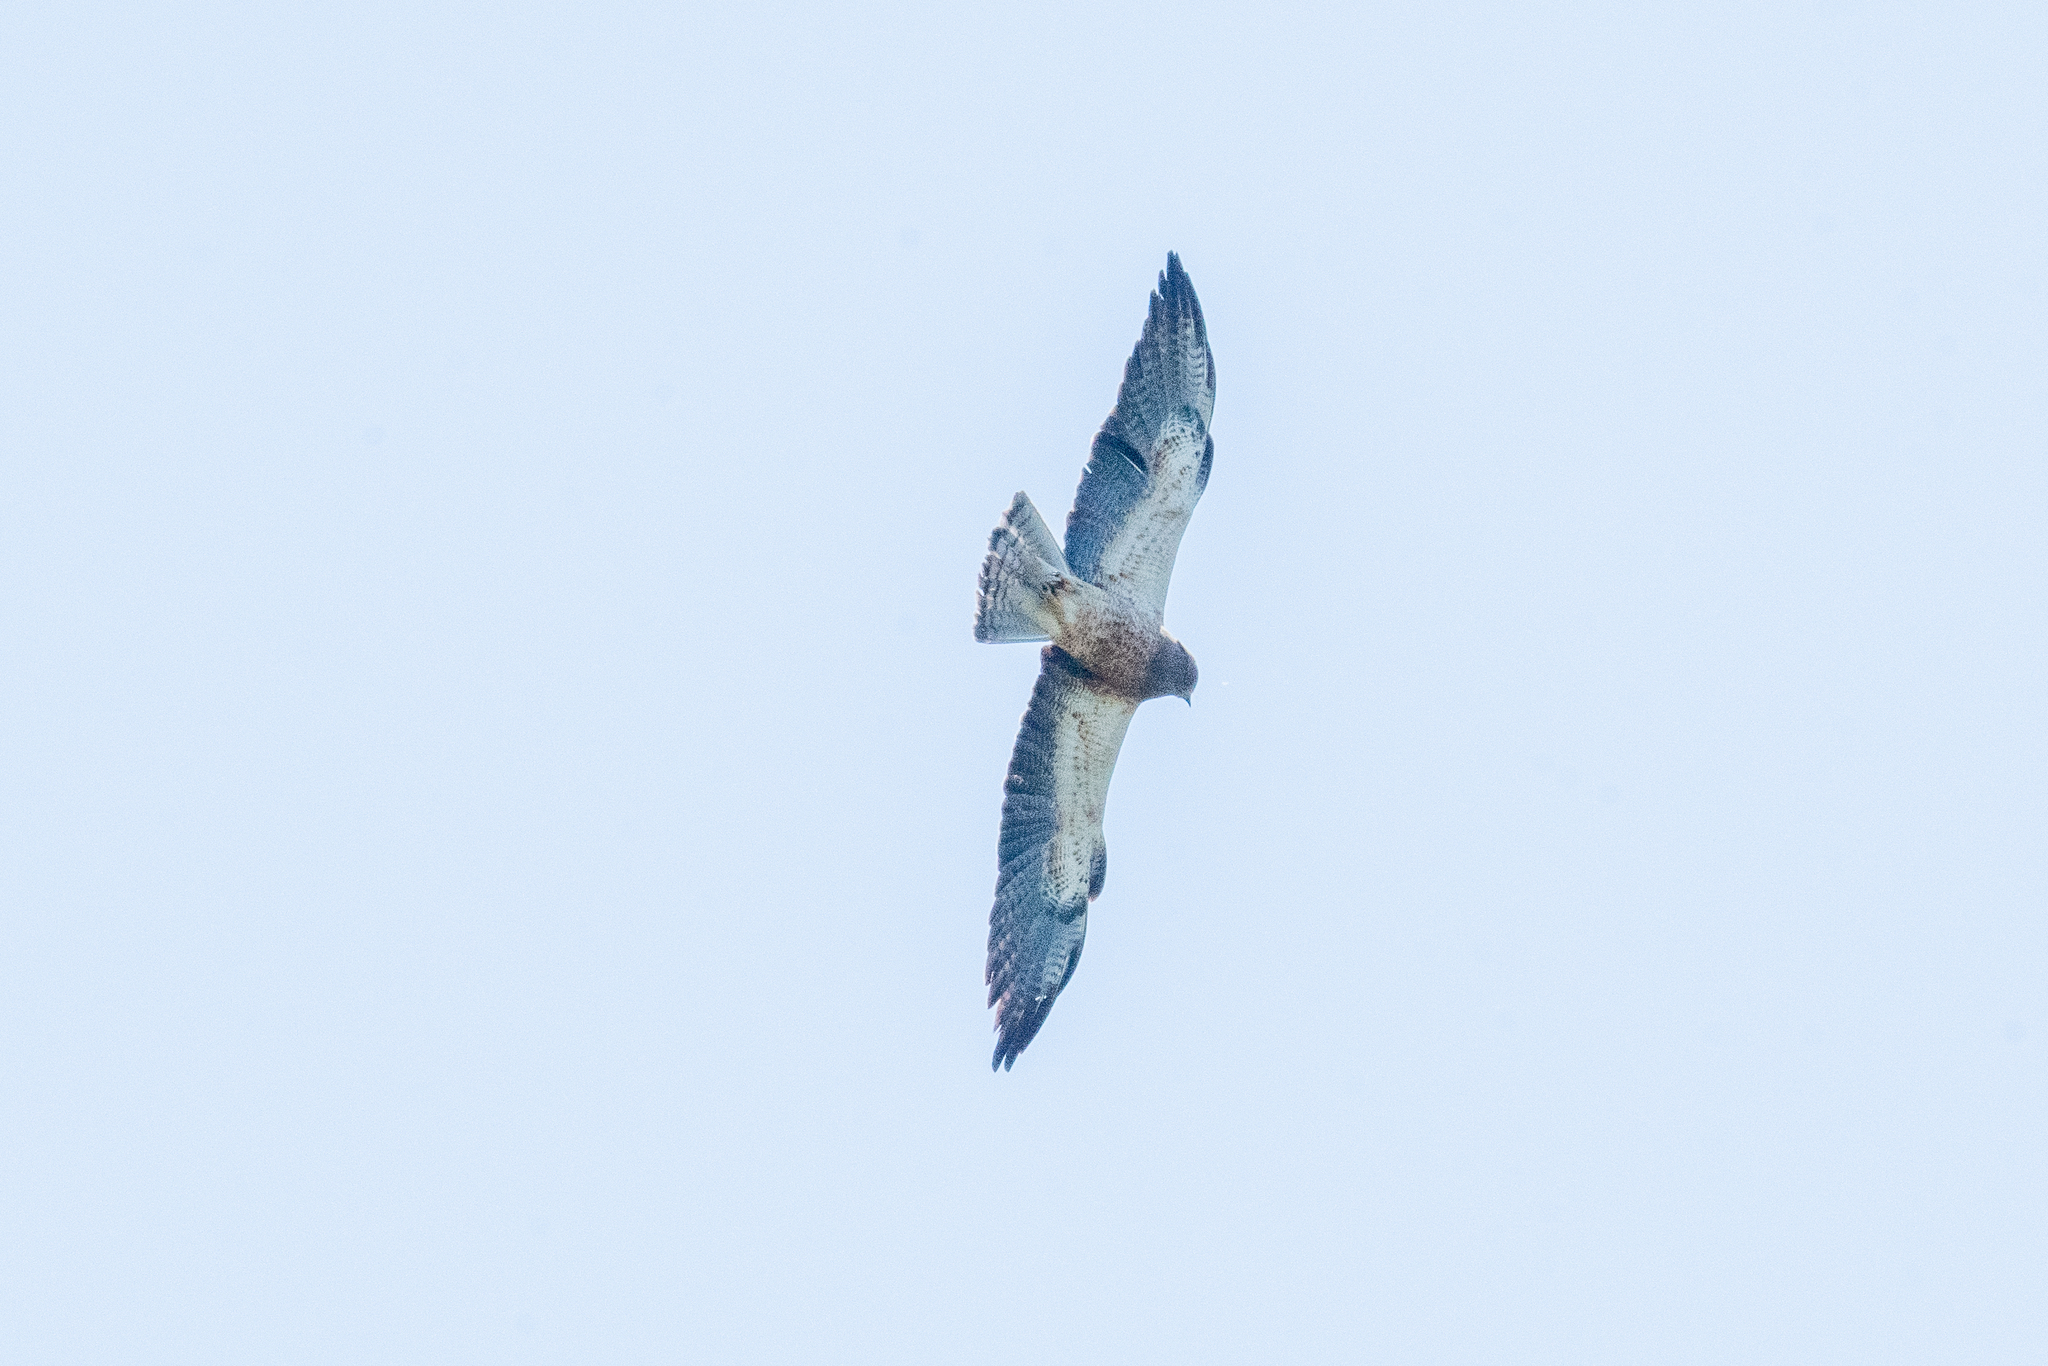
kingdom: Animalia
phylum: Chordata
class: Aves
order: Accipitriformes
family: Accipitridae
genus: Buteo
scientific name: Buteo swainsoni
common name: Swainson's hawk
